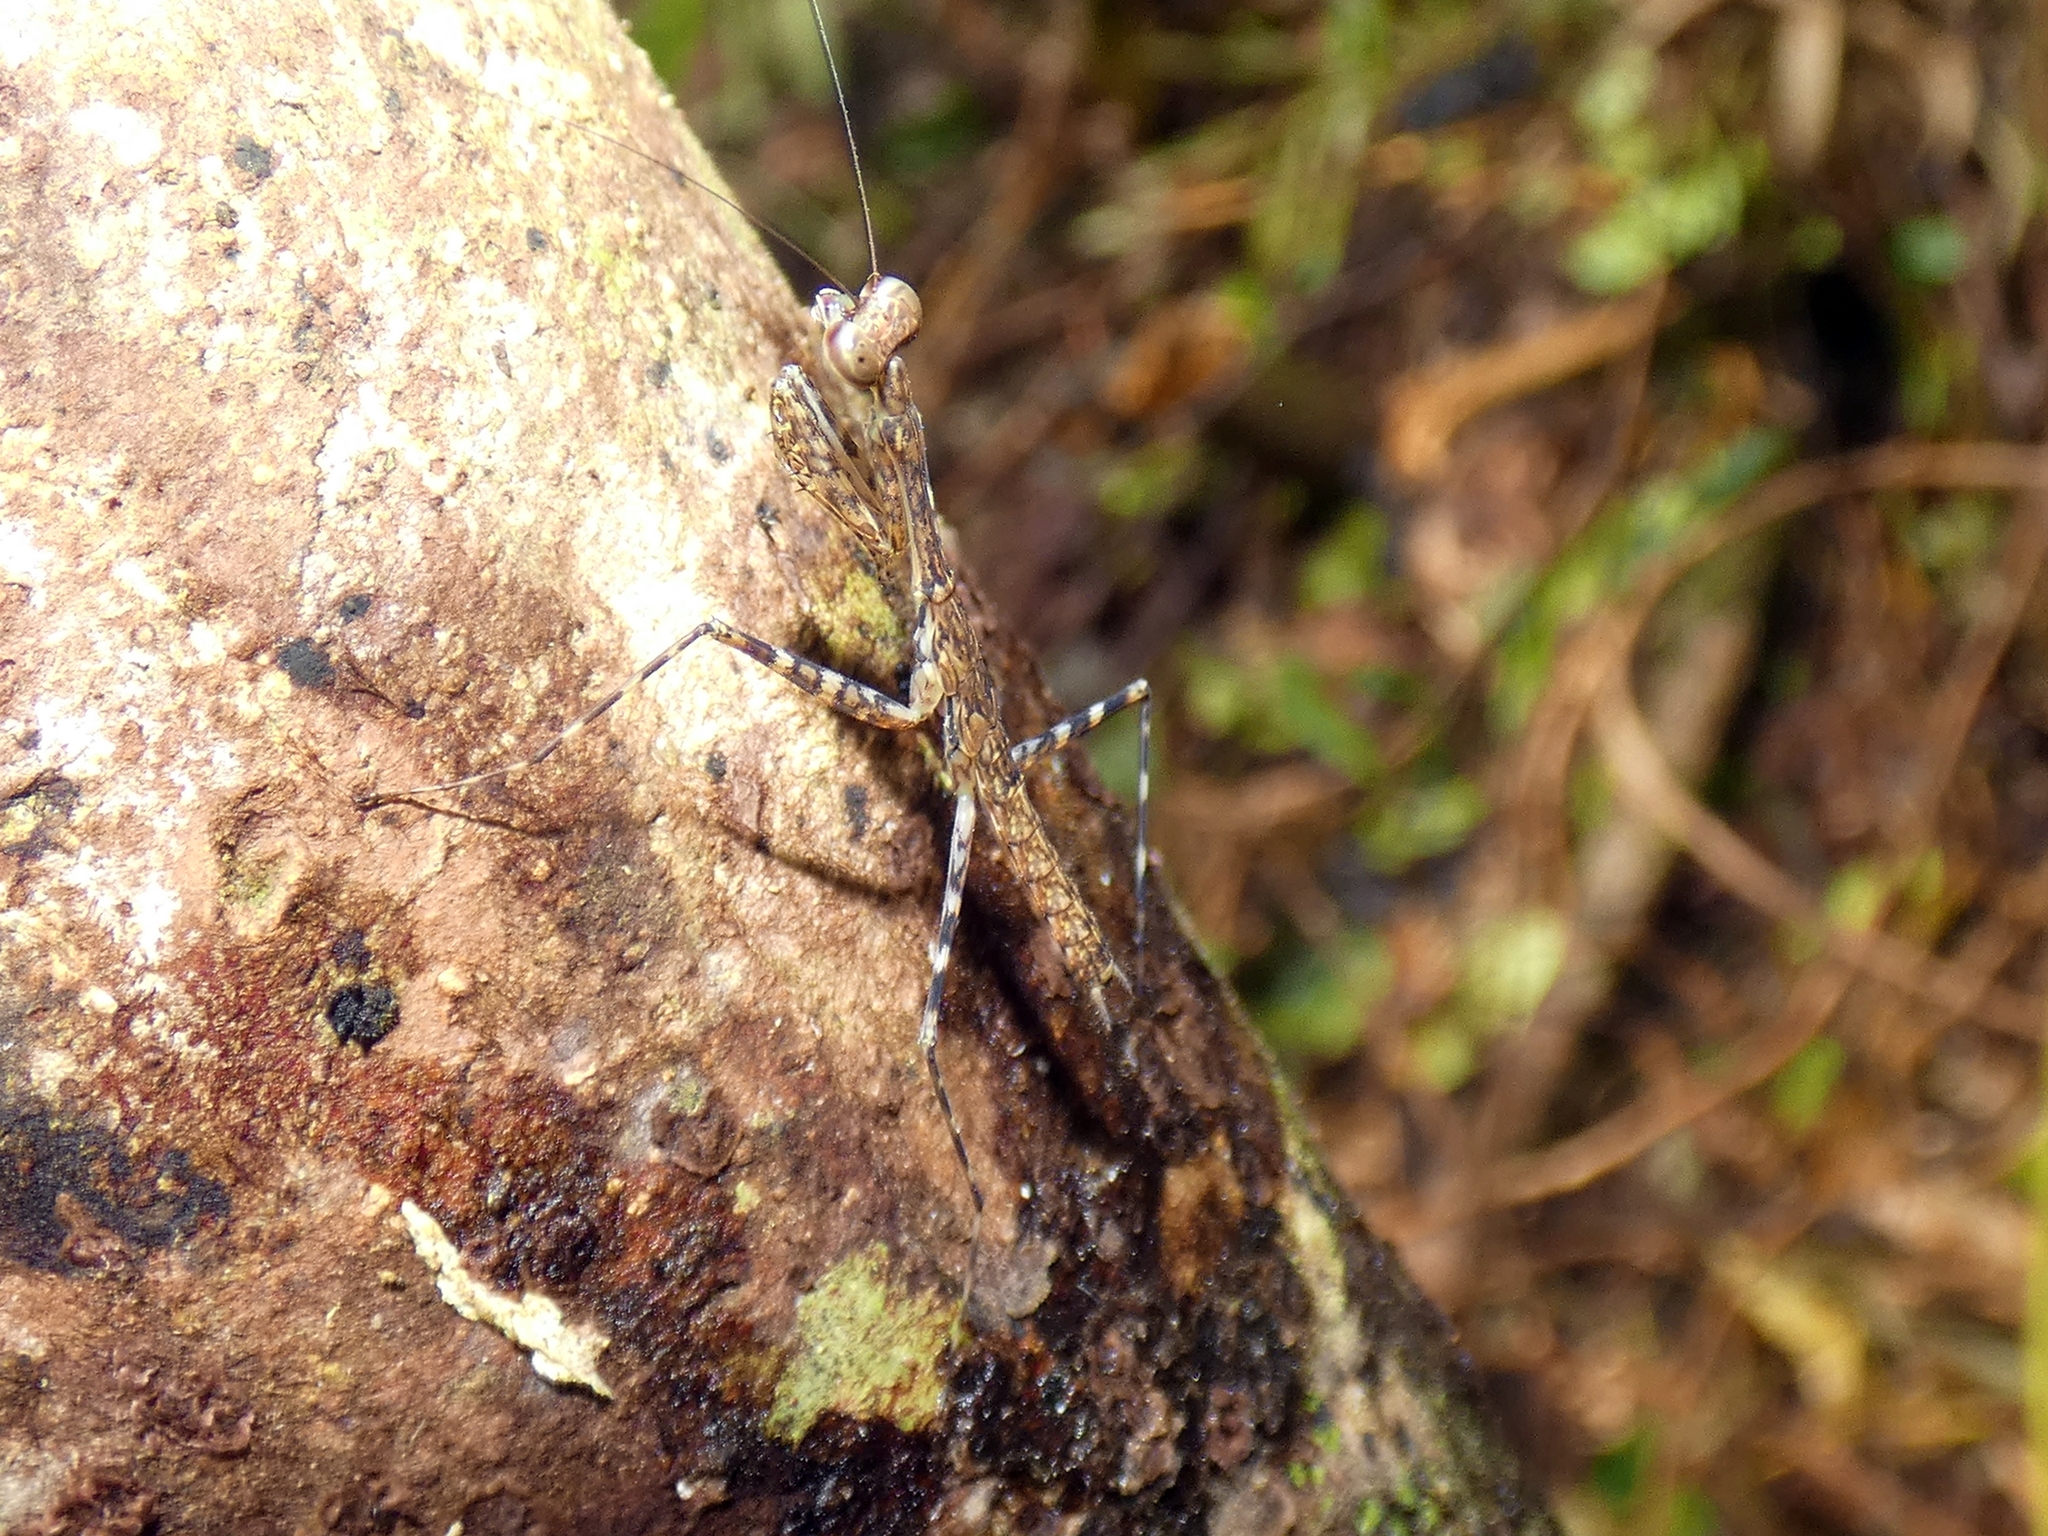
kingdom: Animalia
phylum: Arthropoda
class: Insecta
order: Mantodea
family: Nanomantidae
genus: Ciulfina
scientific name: Ciulfina rentzi
